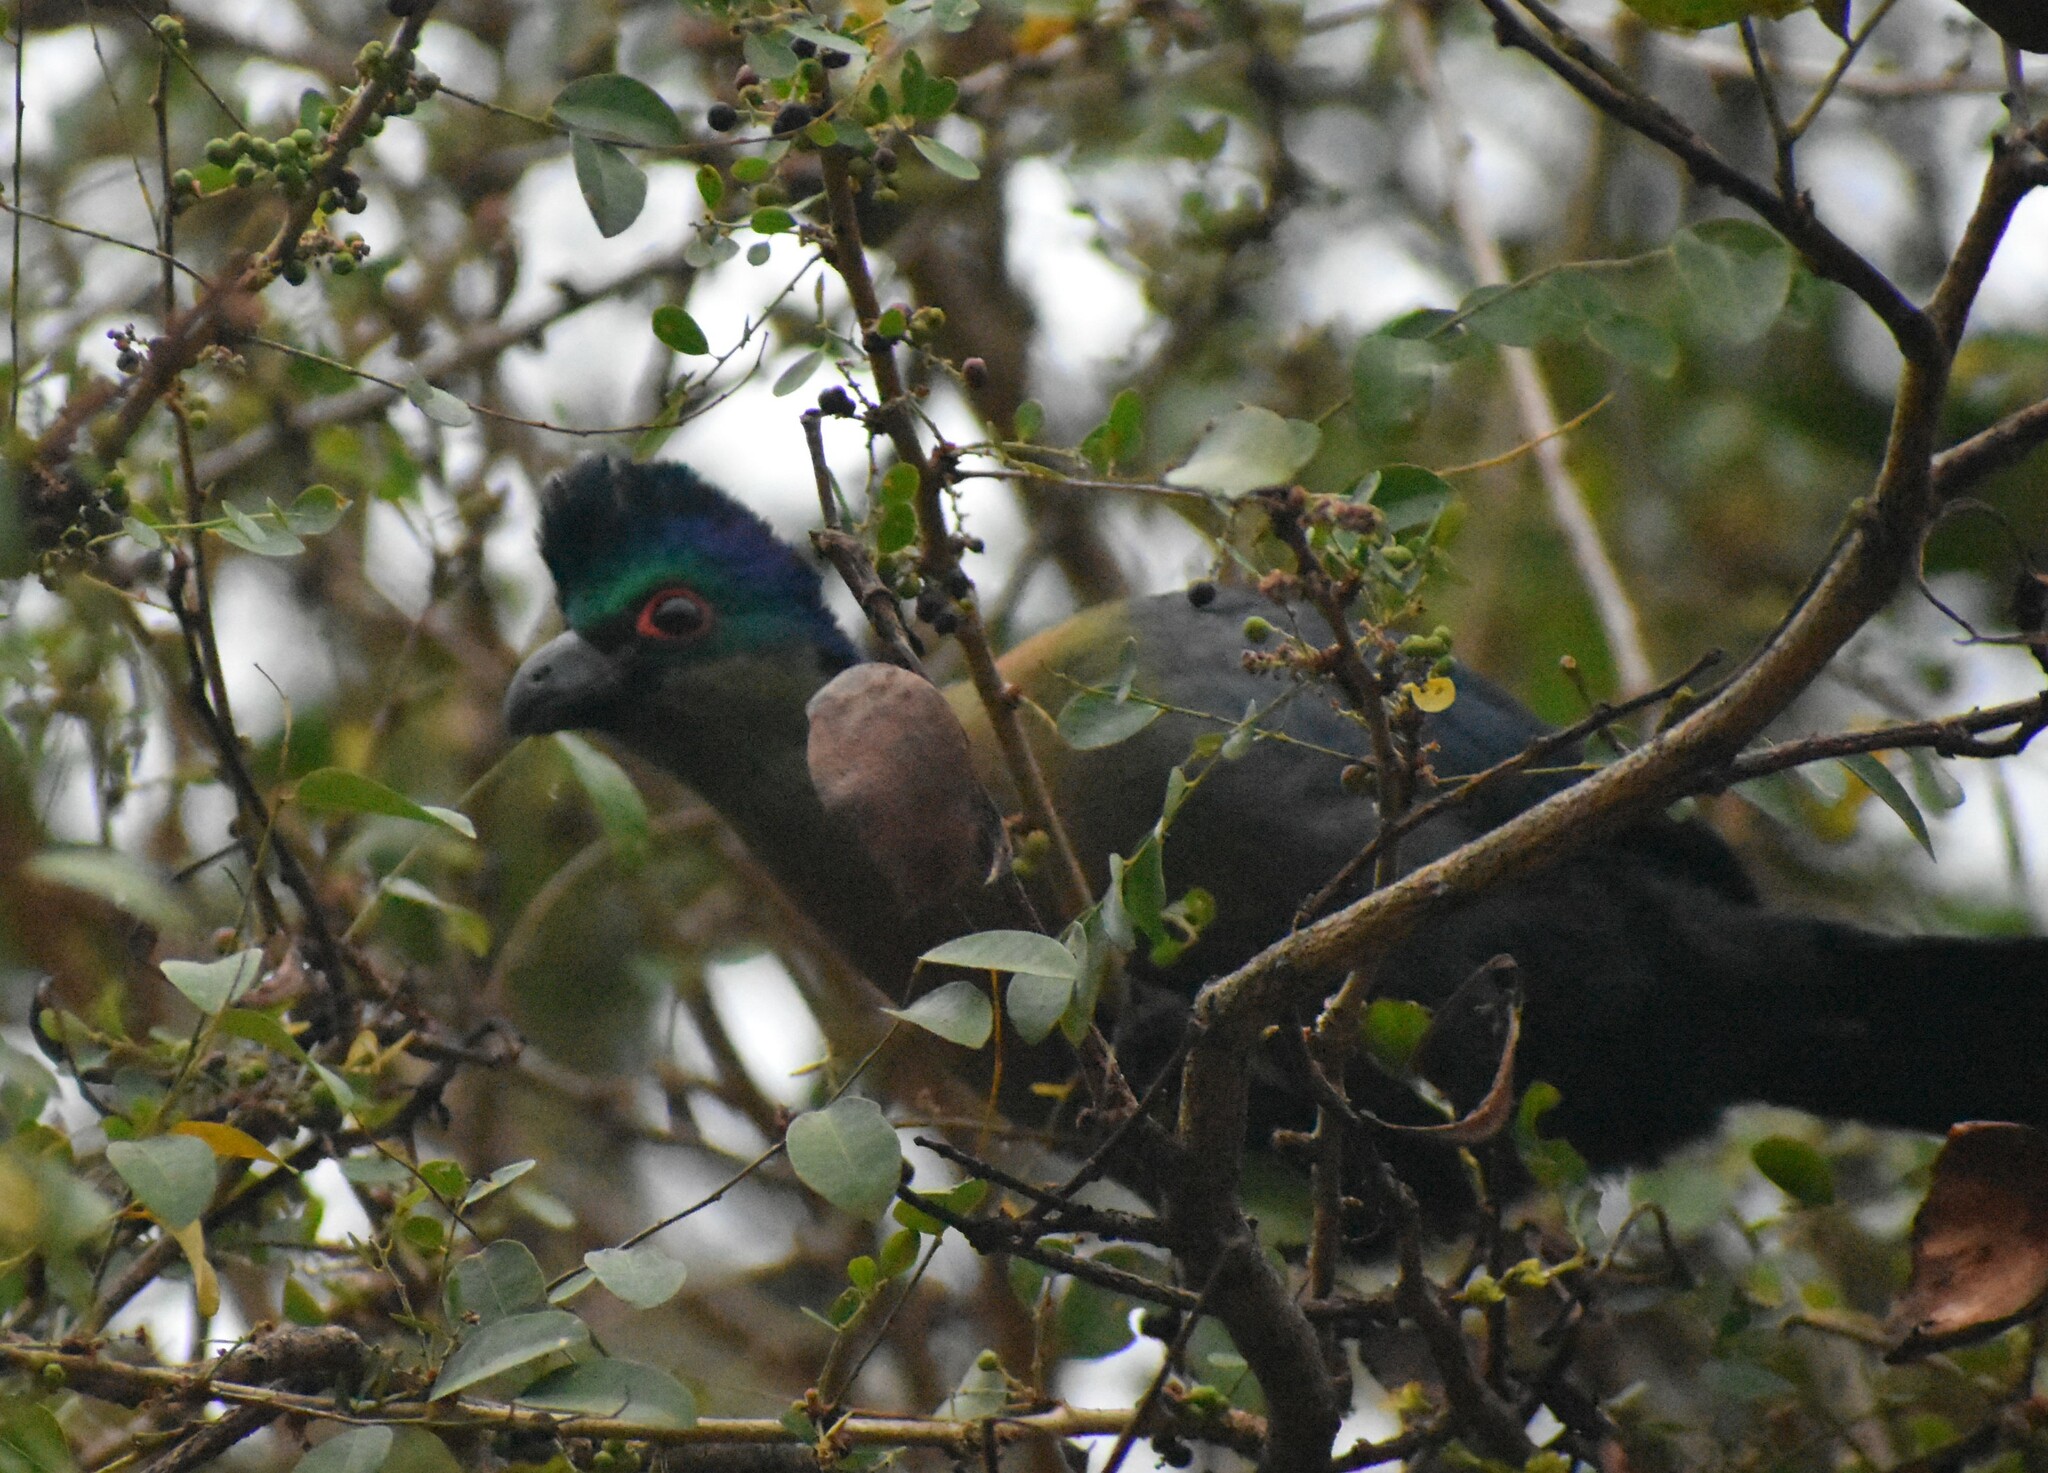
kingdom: Animalia
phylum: Chordata
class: Aves
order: Musophagiformes
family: Musophagidae
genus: Tauraco
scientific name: Tauraco porphyreolophus
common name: Purple-crested turaco
